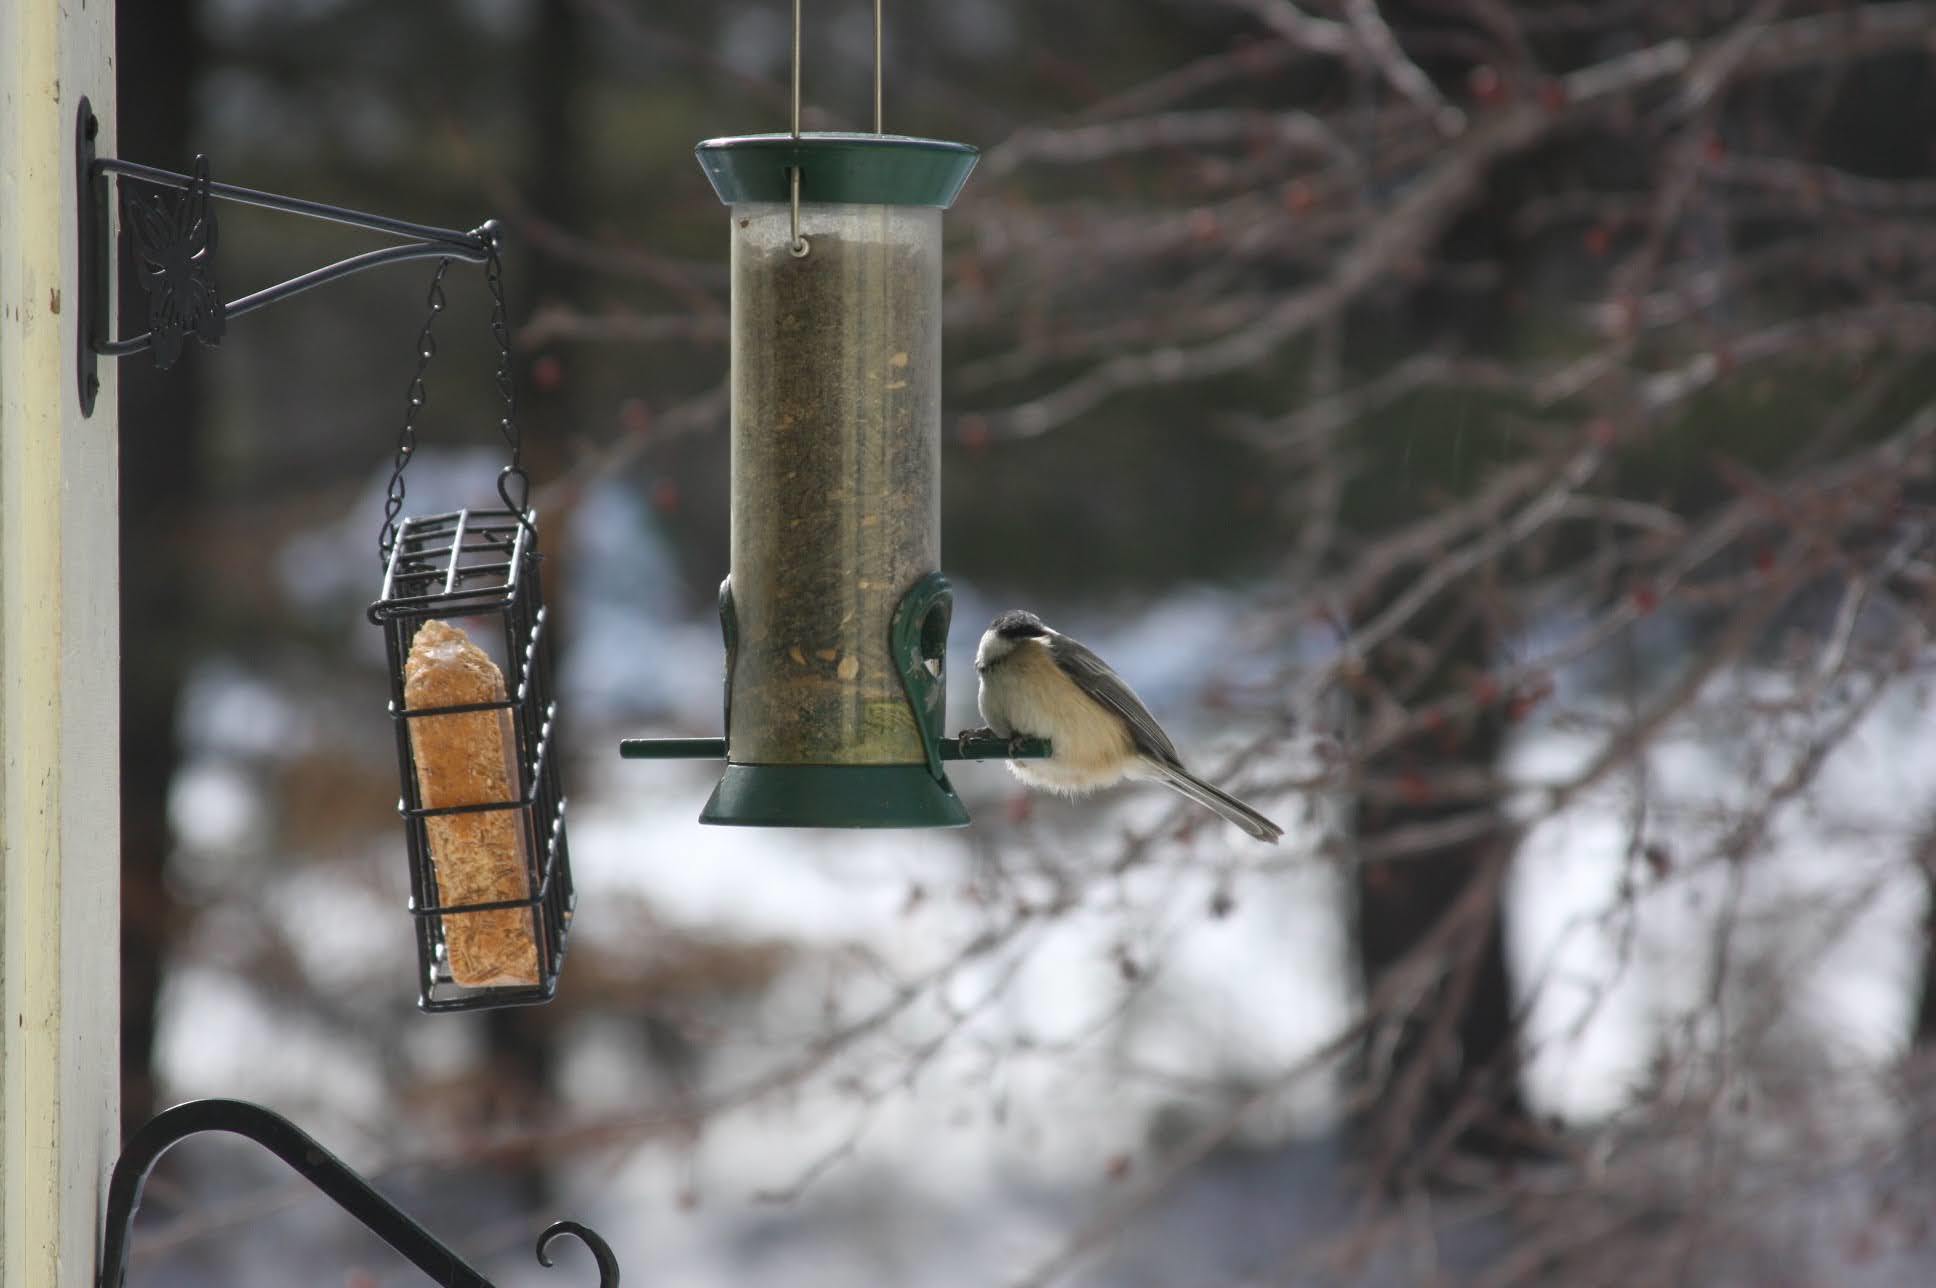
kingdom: Animalia
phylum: Chordata
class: Aves
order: Passeriformes
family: Paridae
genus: Poecile
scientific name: Poecile atricapillus
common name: Black-capped chickadee
